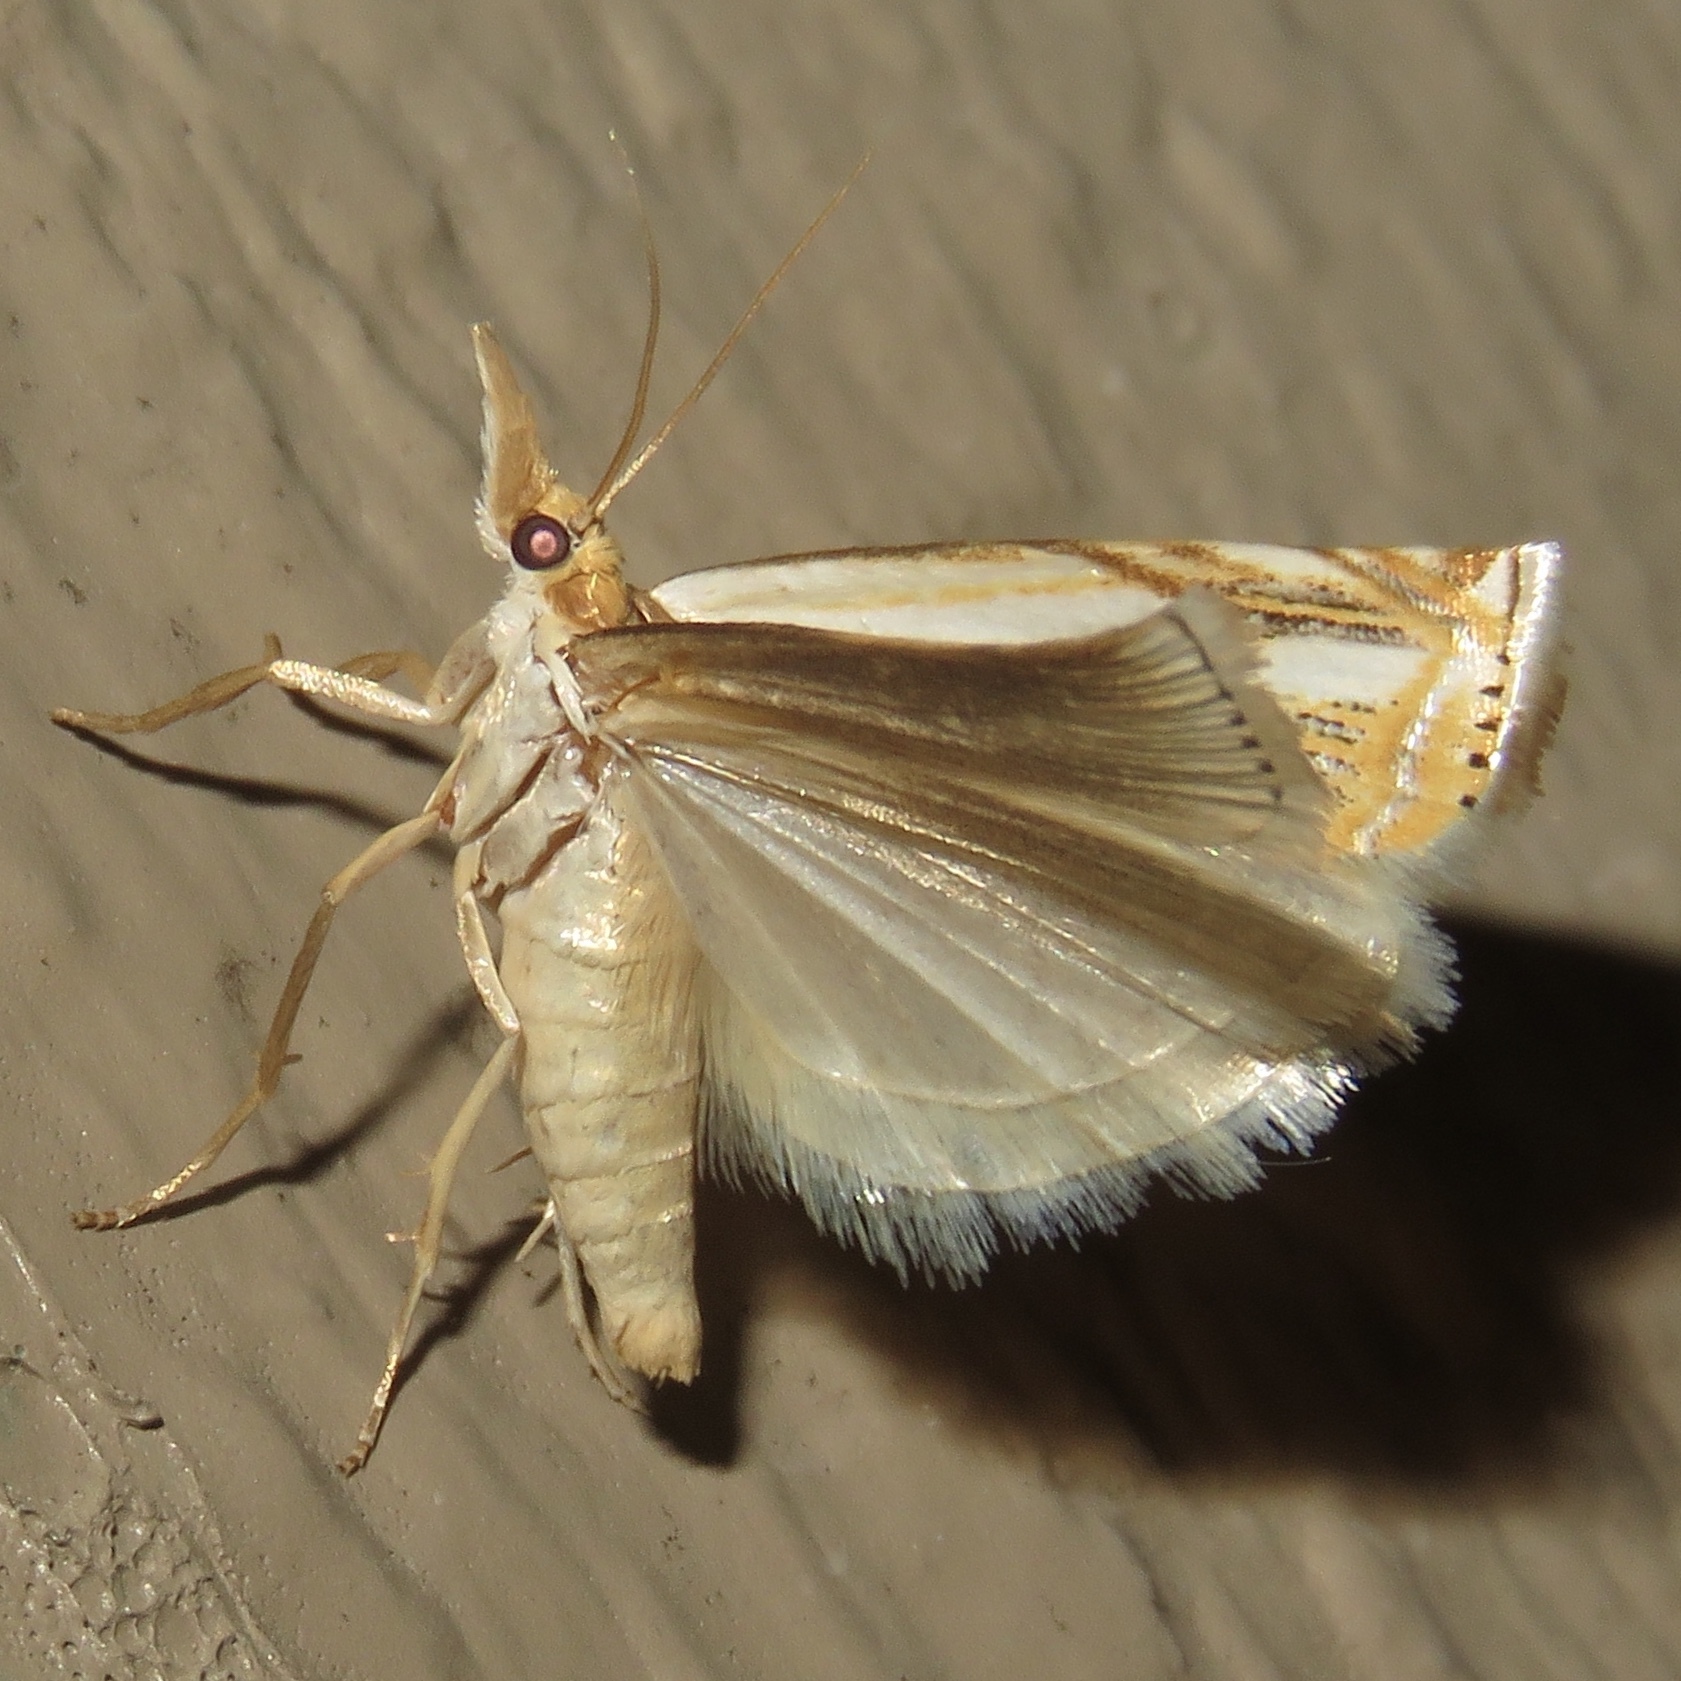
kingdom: Animalia
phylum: Arthropoda
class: Insecta
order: Lepidoptera
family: Crambidae
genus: Crambus
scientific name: Crambus agitatellus
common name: Double-banded grass-veneer
